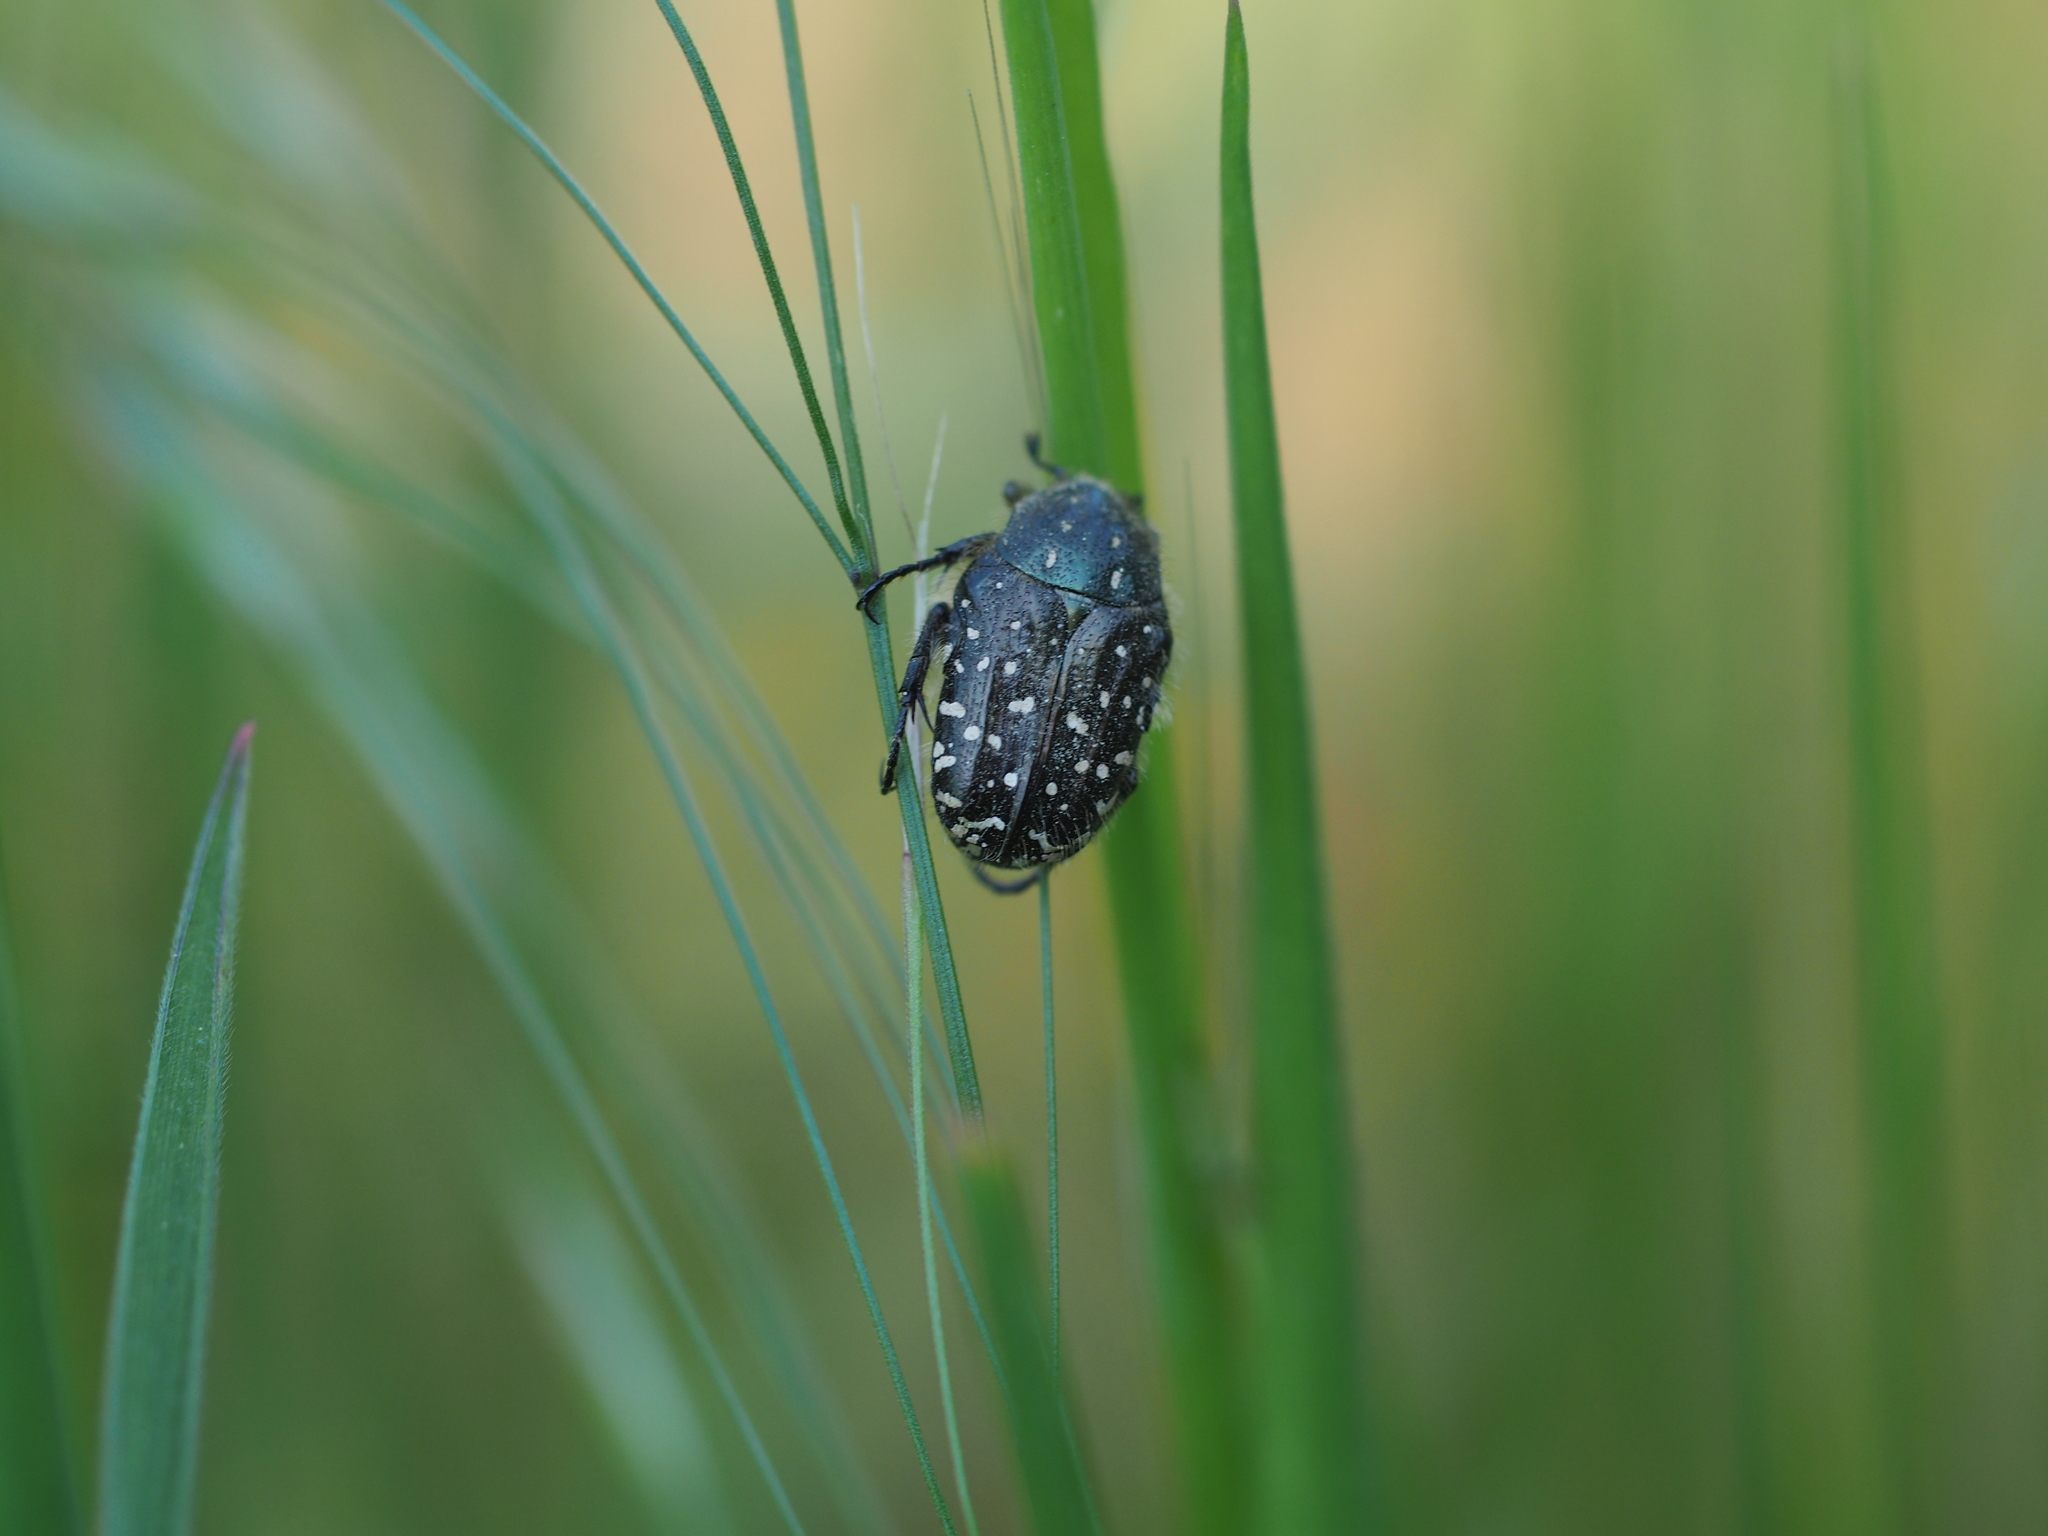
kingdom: Animalia
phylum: Arthropoda
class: Insecta
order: Coleoptera
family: Scarabaeidae
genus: Oxythyrea
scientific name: Oxythyrea funesta
